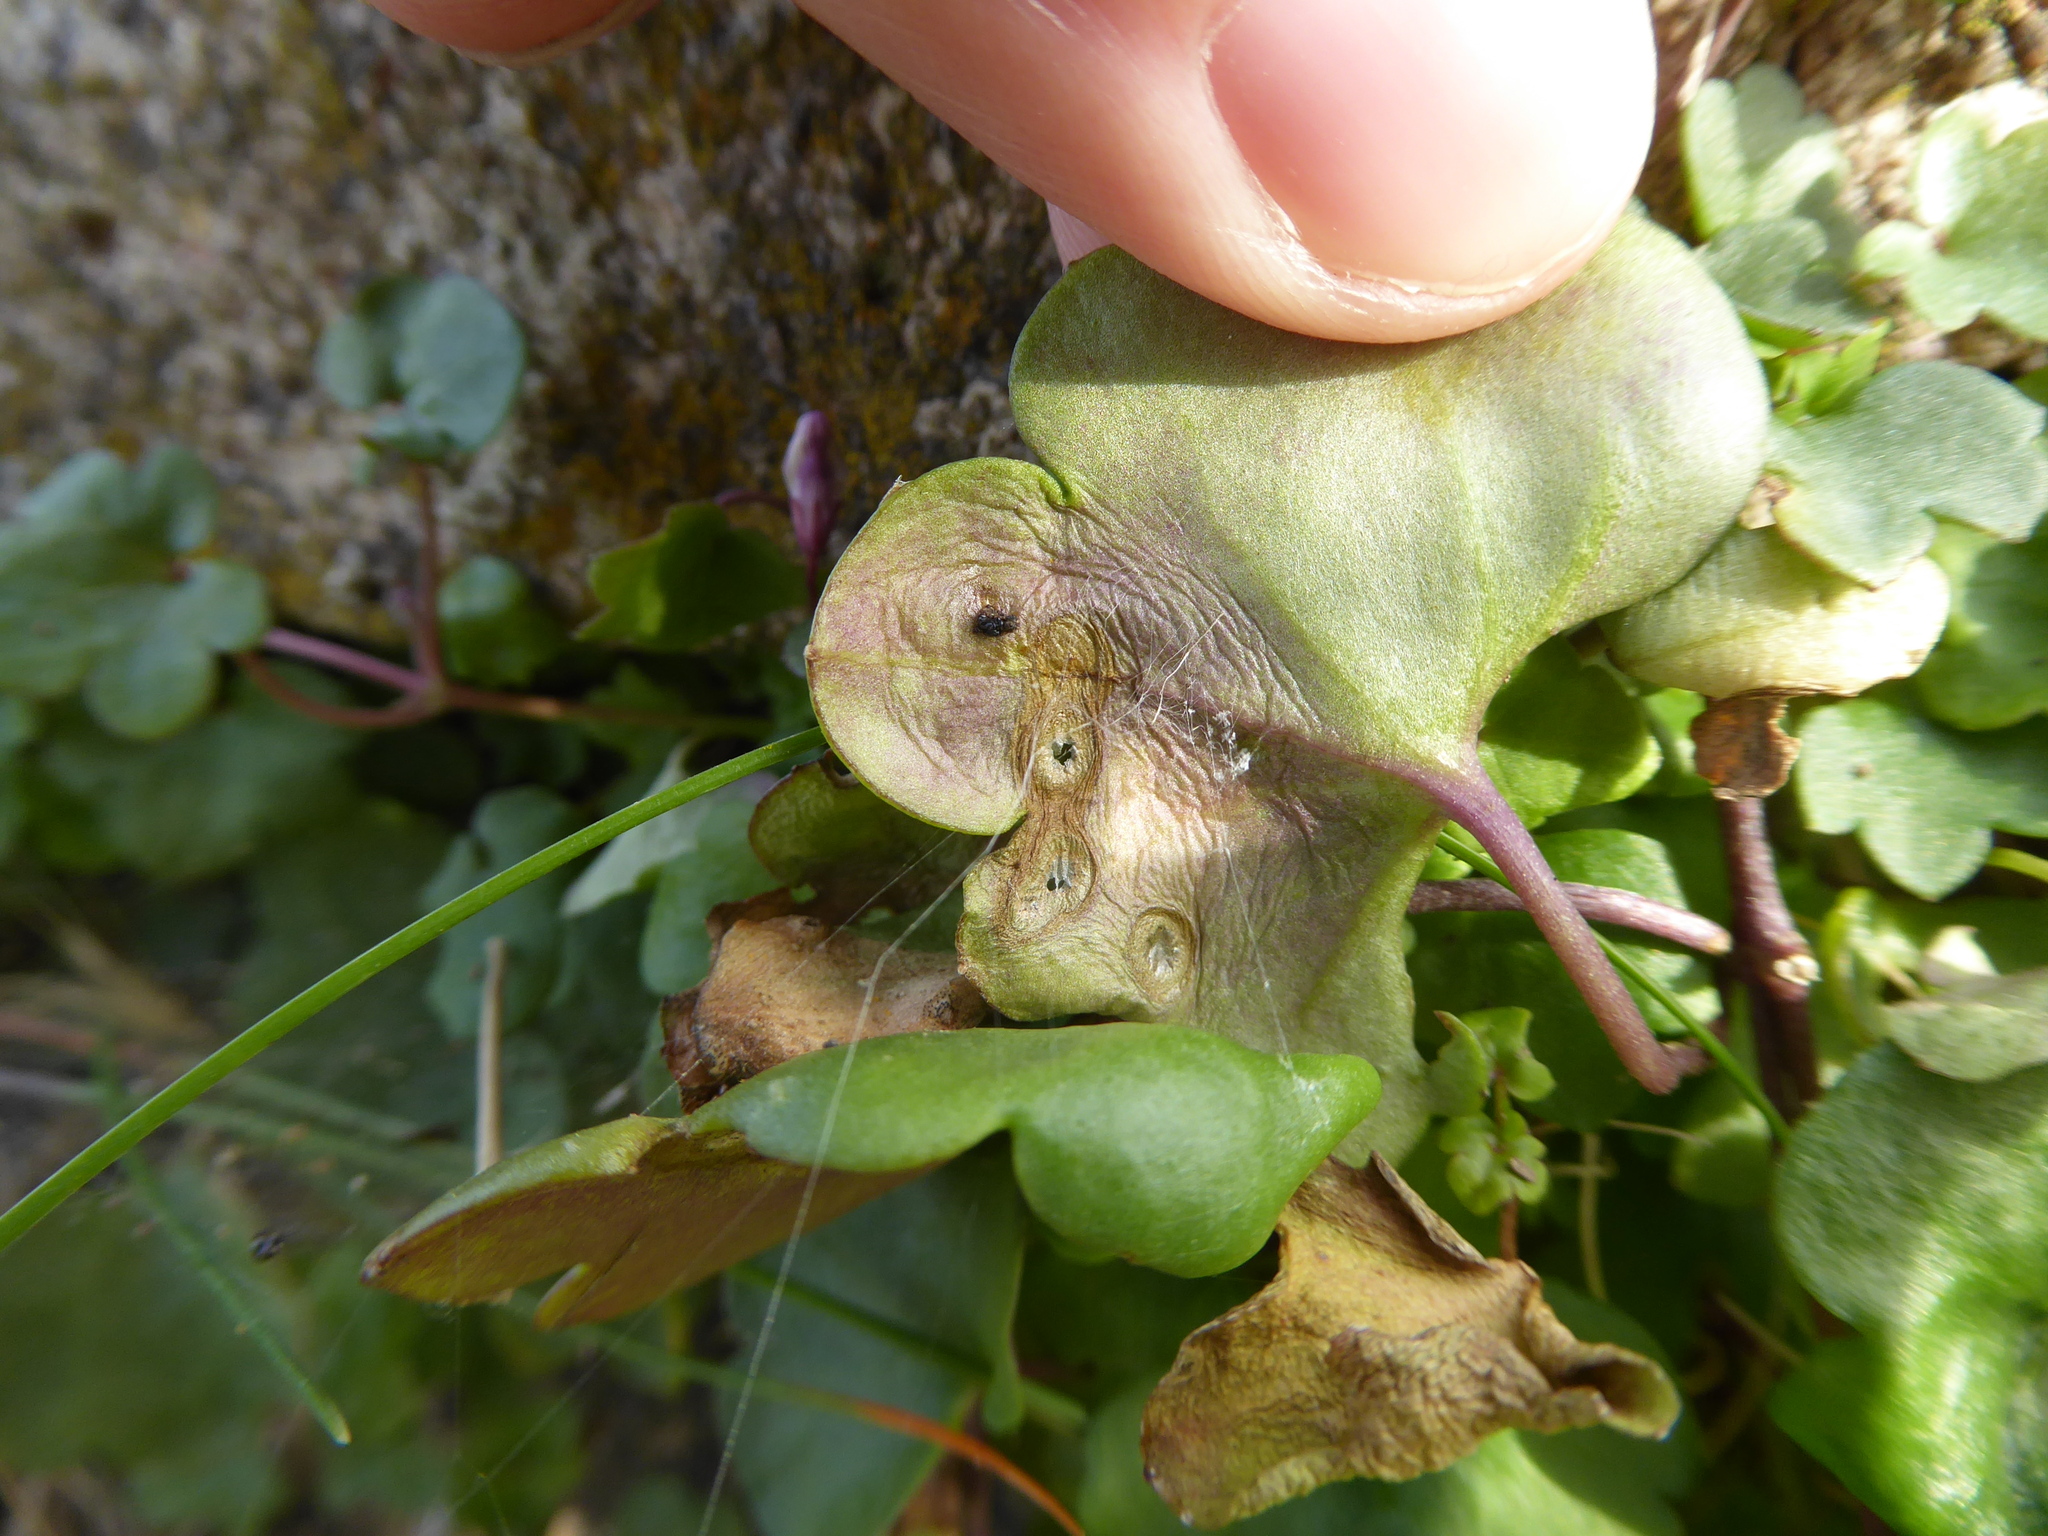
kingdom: Fungi
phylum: Ascomycota
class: Dothideomycetes
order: Mycosphaerellales
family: Mycosphaerellaceae
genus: Septoria
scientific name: Septoria cymbalariae
